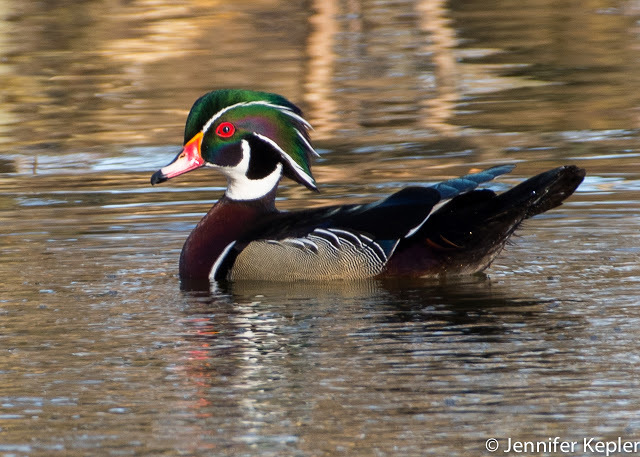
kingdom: Animalia
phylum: Chordata
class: Aves
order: Anseriformes
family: Anatidae
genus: Aix
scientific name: Aix sponsa
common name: Wood duck
